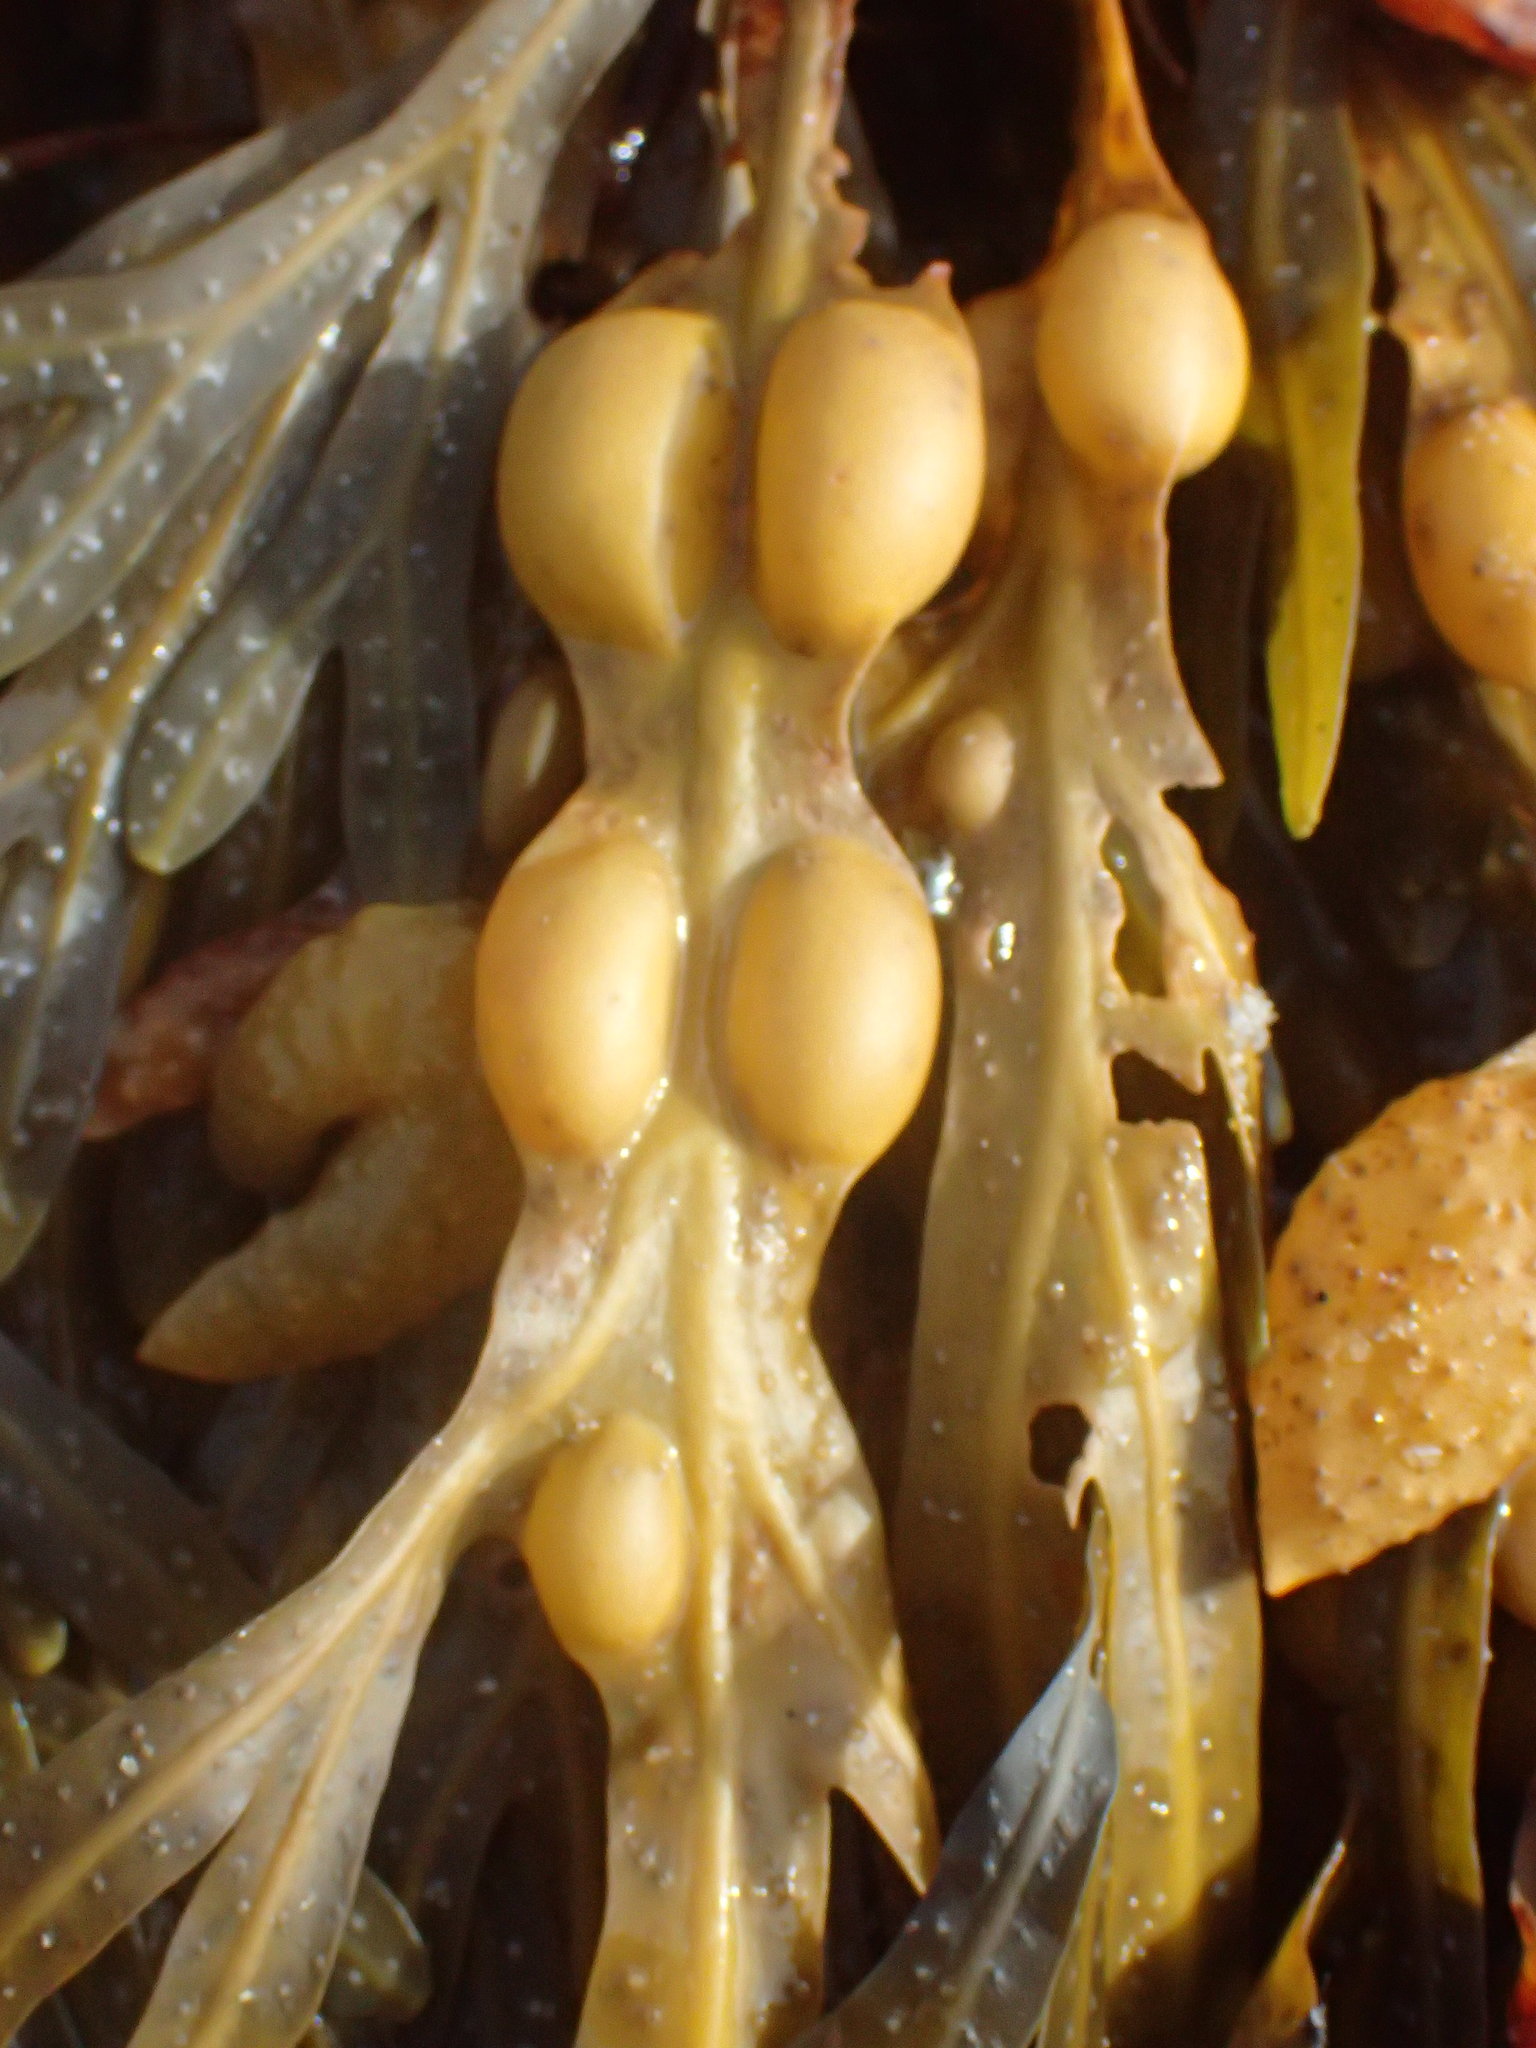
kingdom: Chromista
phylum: Ochrophyta
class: Phaeophyceae
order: Fucales
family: Fucaceae
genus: Fucus
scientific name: Fucus vesiculosus
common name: Bladder wrack
